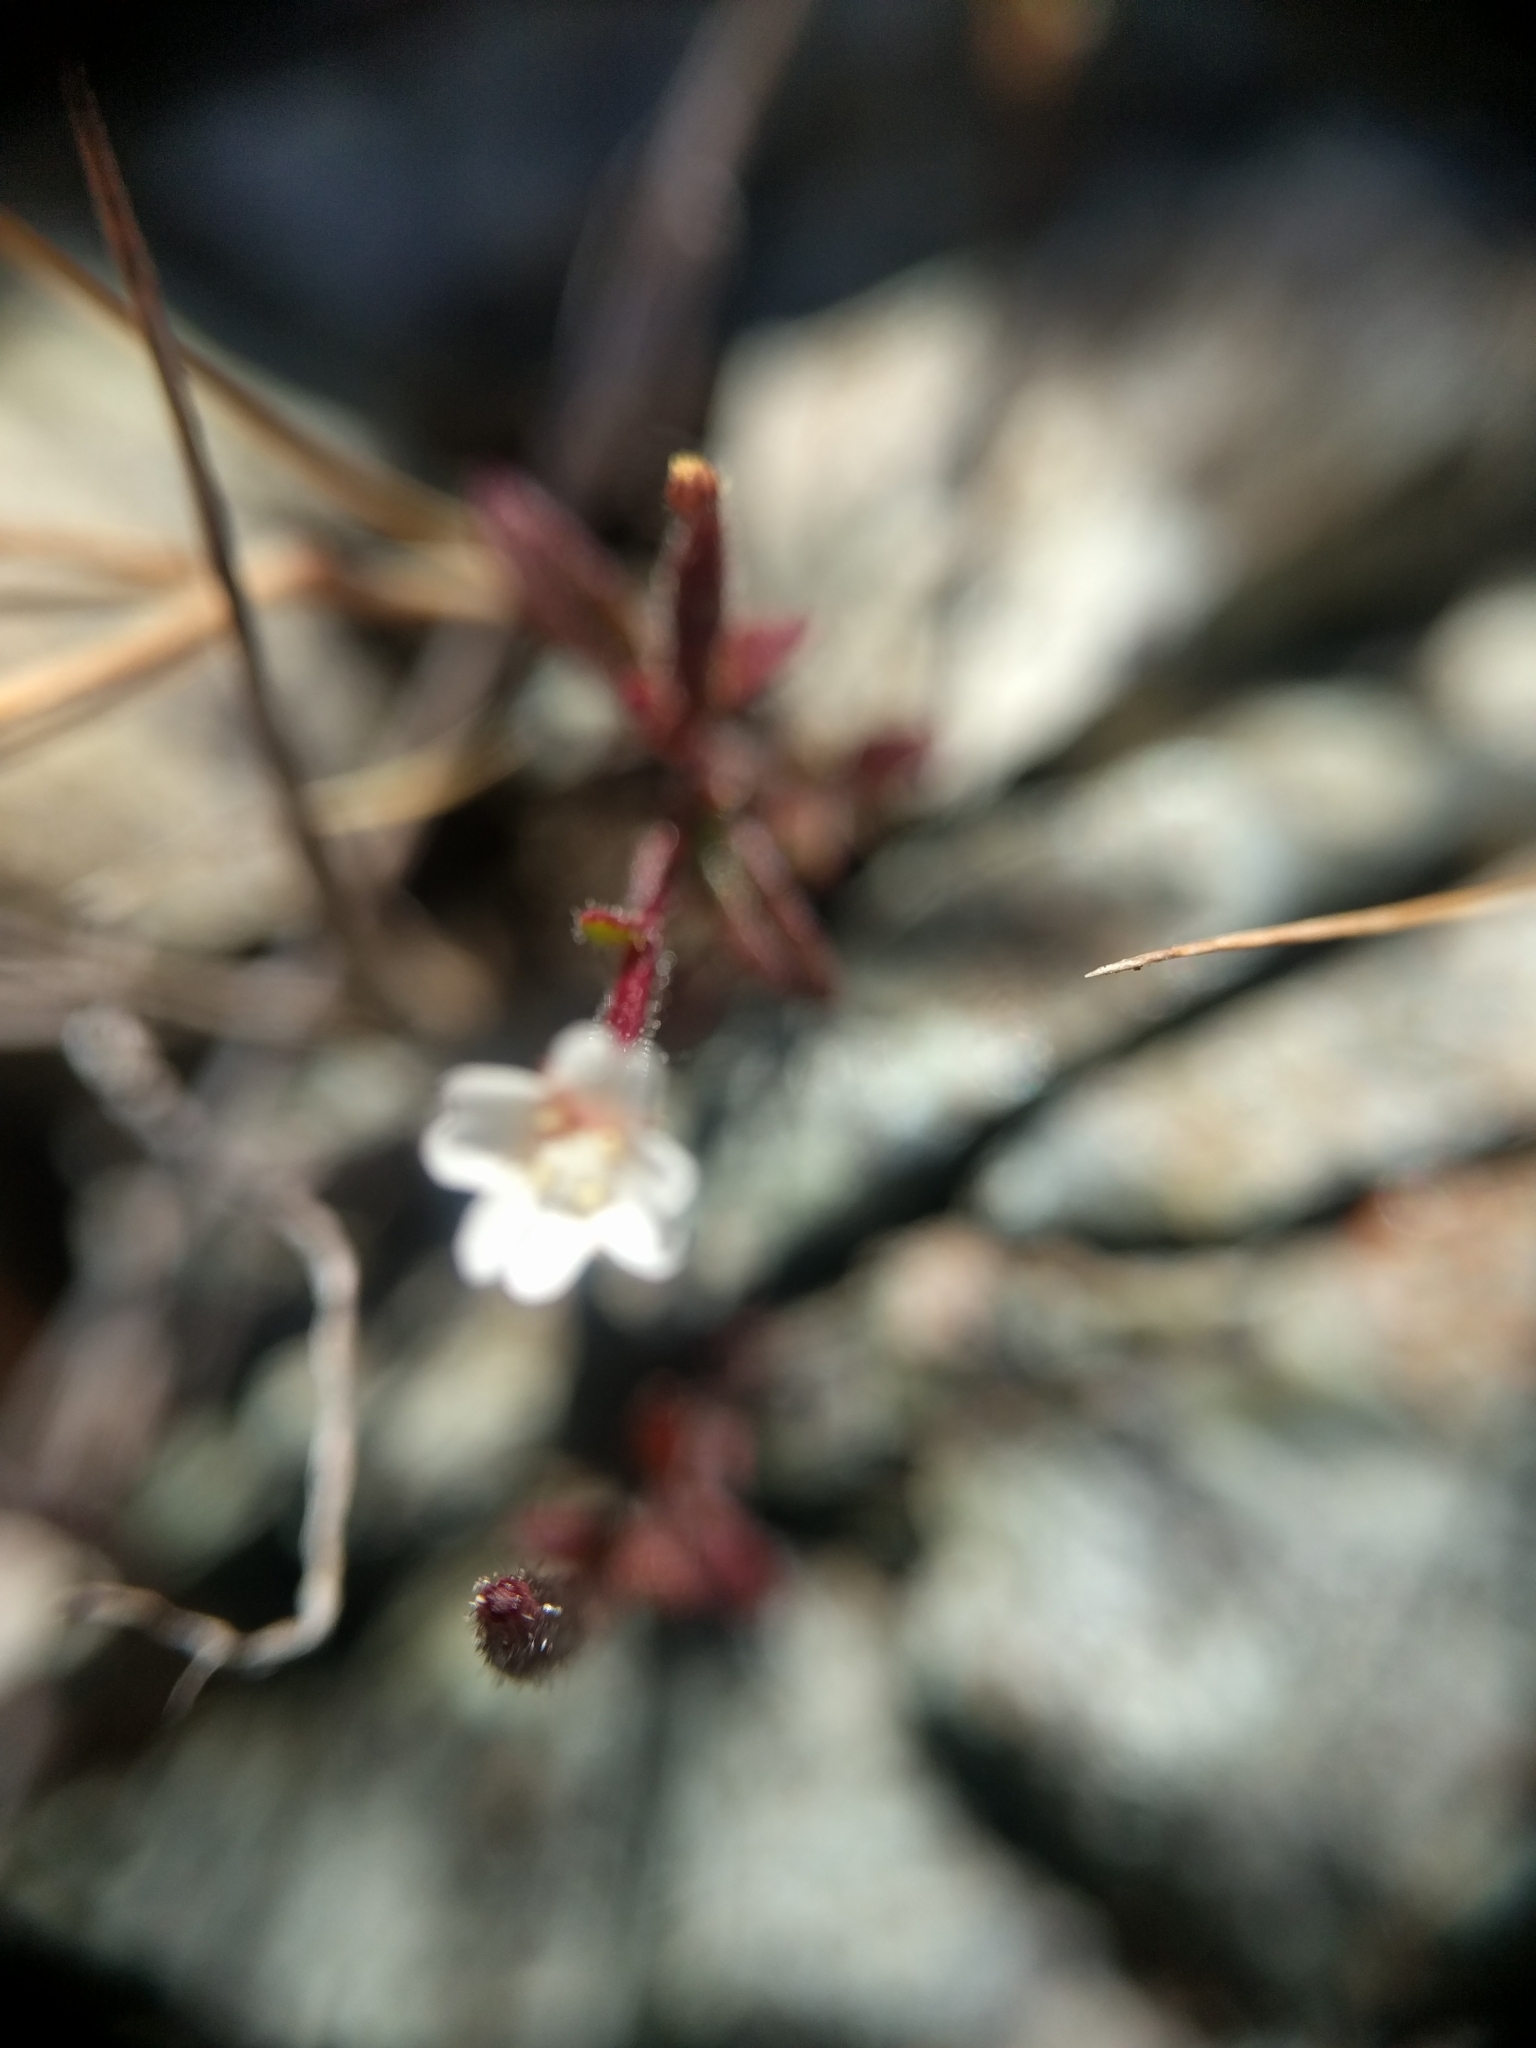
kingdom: Plantae
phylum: Tracheophyta
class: Magnoliopsida
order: Myrtales
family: Onagraceae
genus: Epilobium
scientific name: Epilobium minutum
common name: Chaparral willowherb
